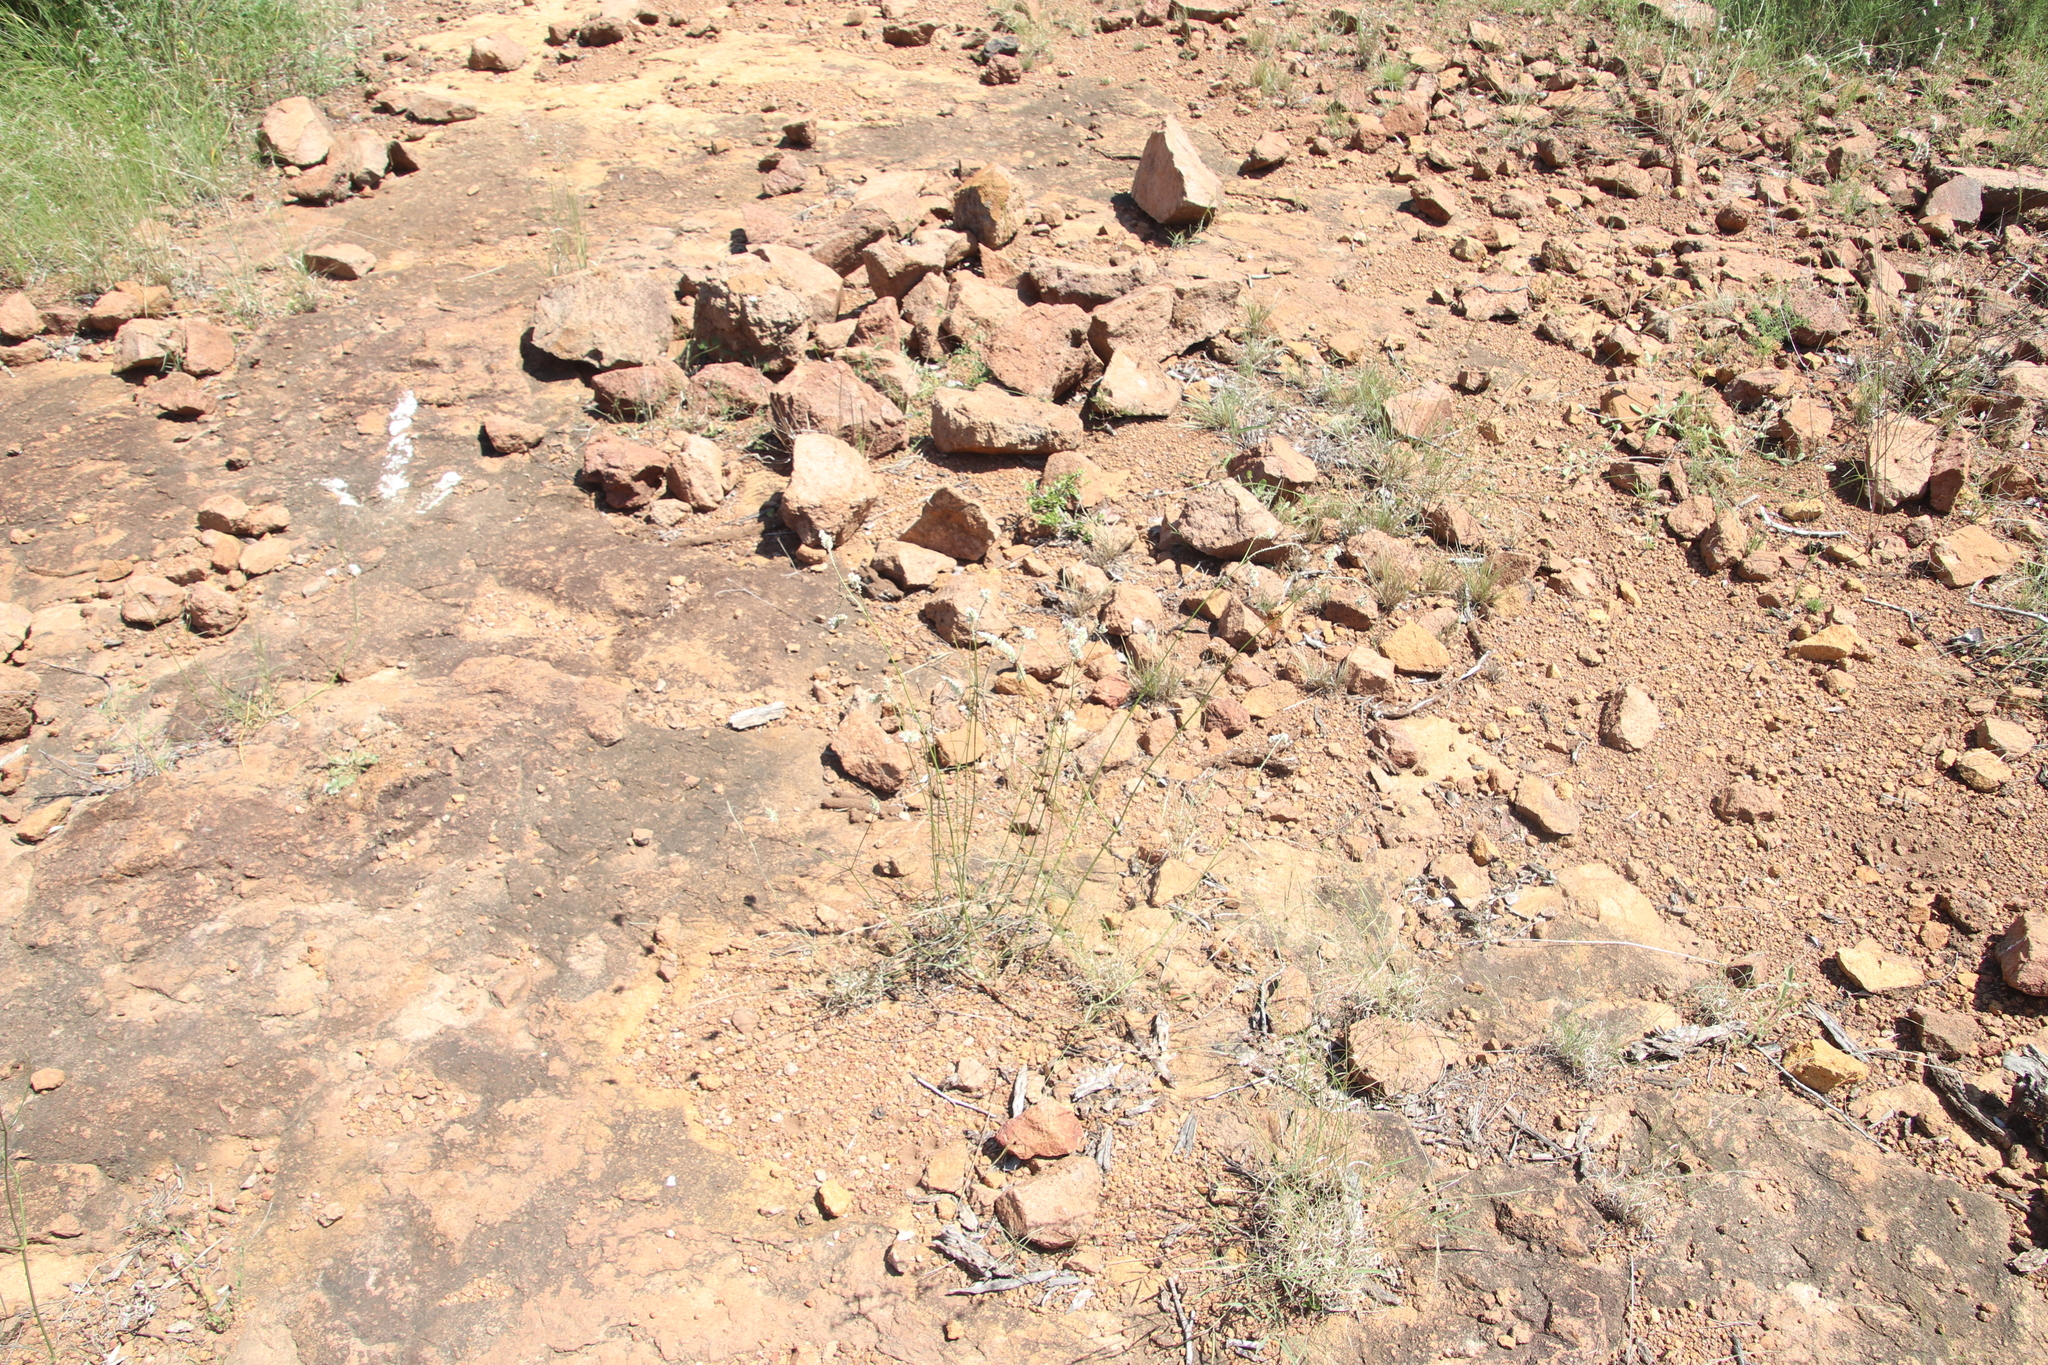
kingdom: Plantae
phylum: Tracheophyta
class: Magnoliopsida
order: Caryophyllales
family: Amaranthaceae
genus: Cyphocarpa
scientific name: Cyphocarpa angustifolia
